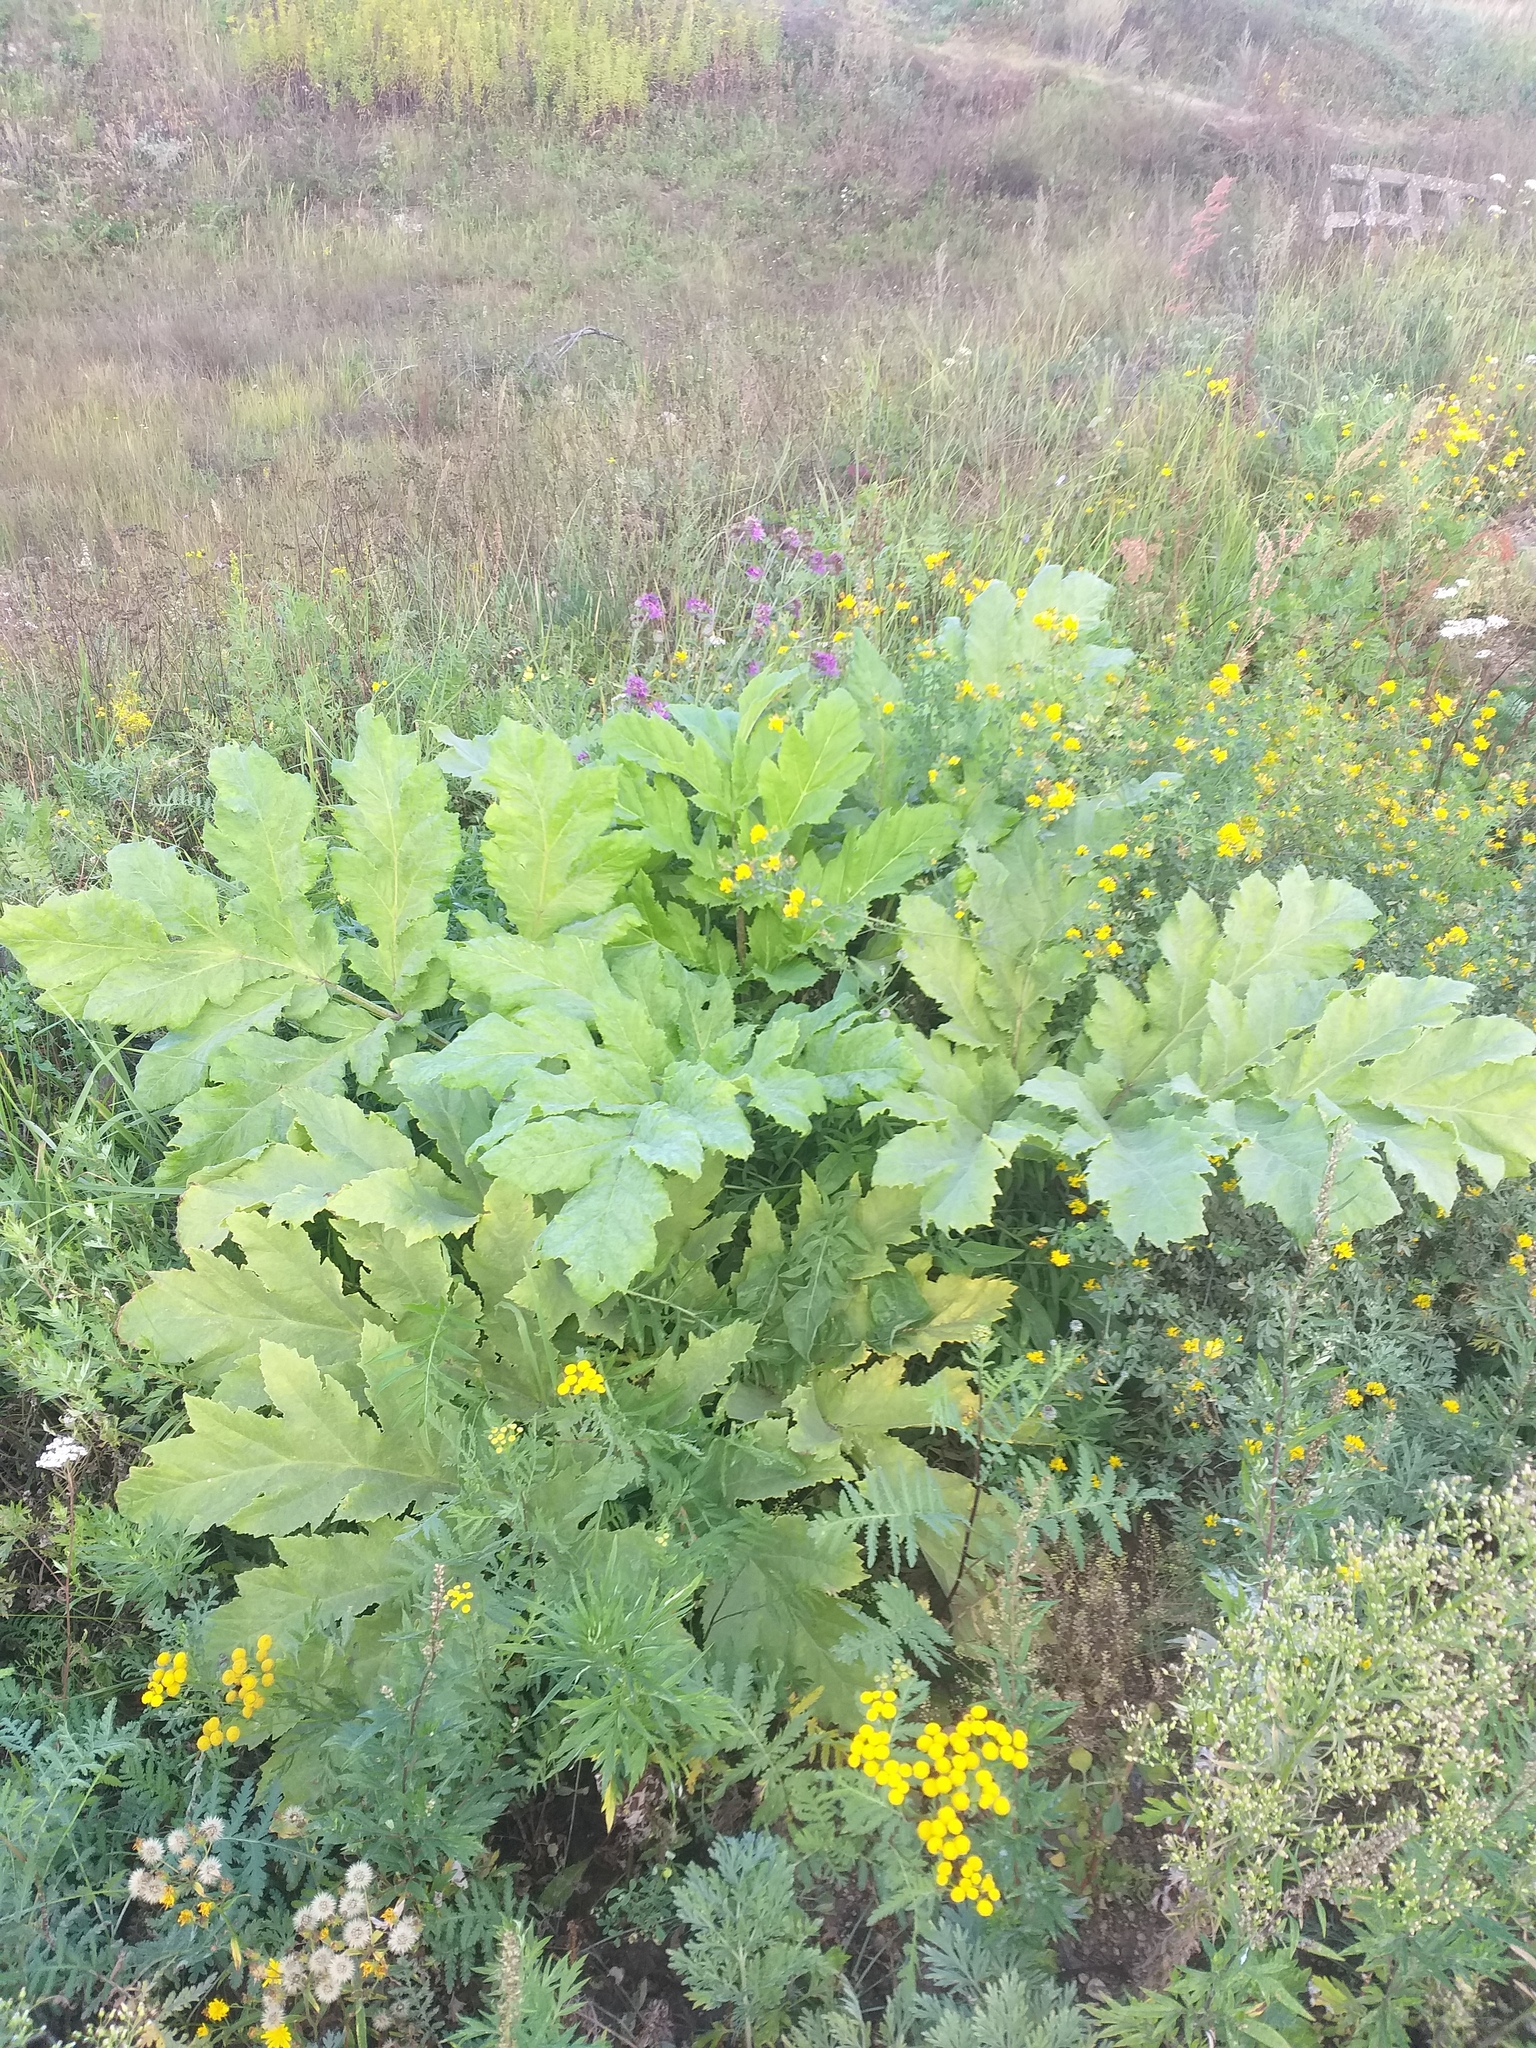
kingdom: Plantae
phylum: Tracheophyta
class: Magnoliopsida
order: Apiales
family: Apiaceae
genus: Heracleum
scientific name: Heracleum sosnowskyi
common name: Sosnowsky's hogweed
